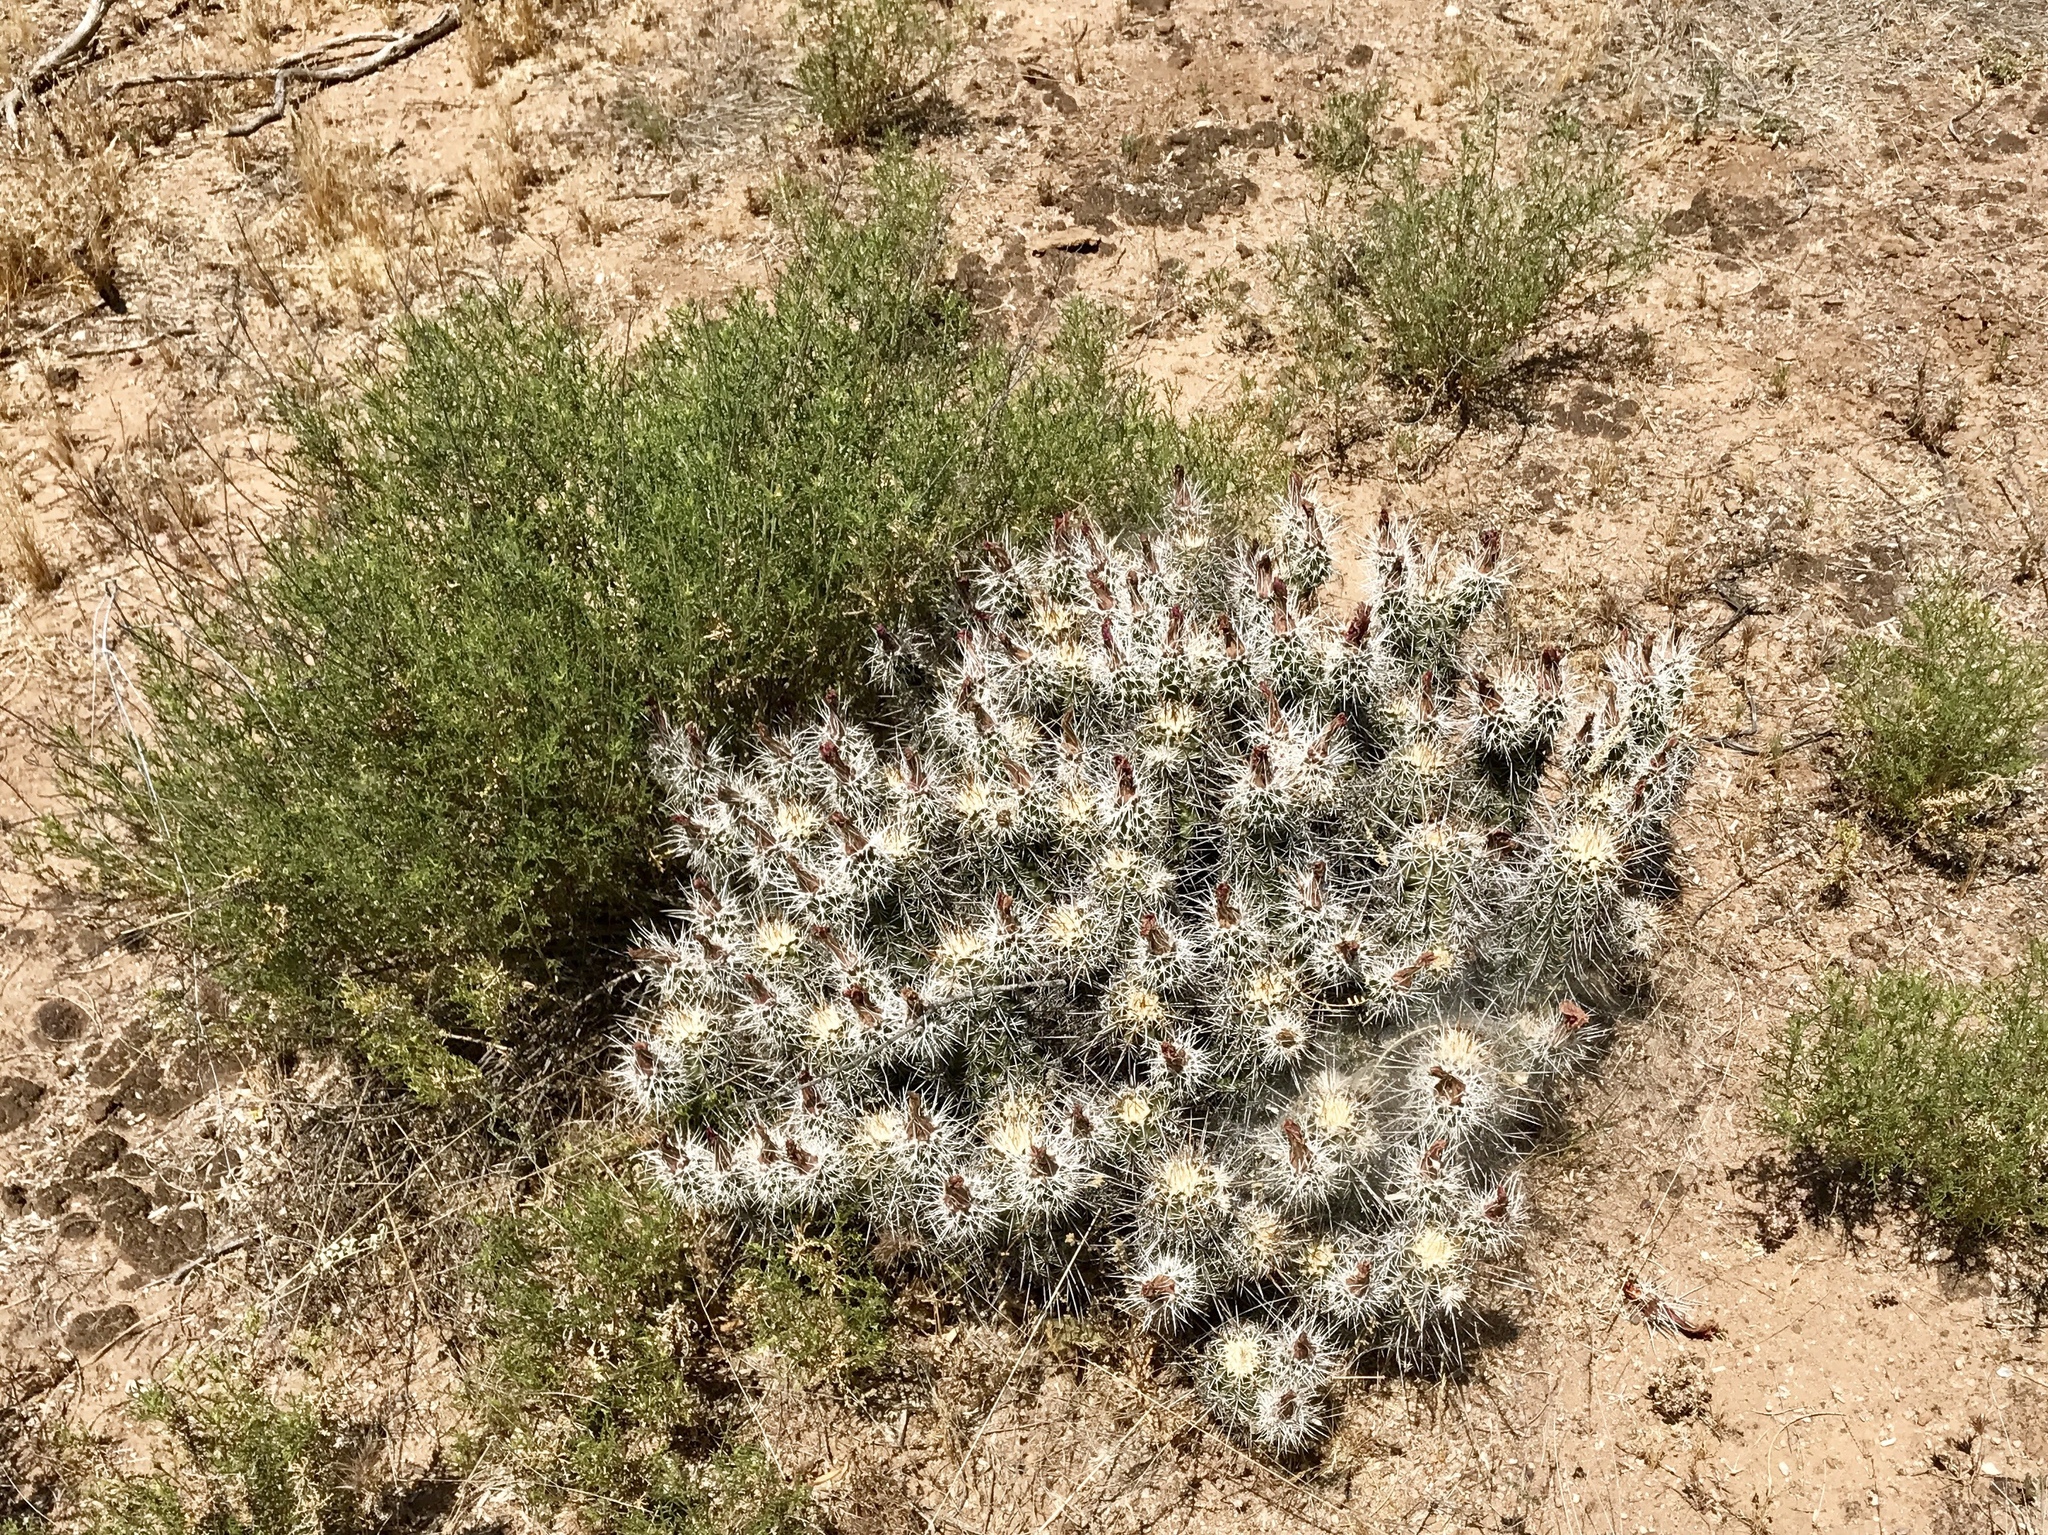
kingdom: Plantae
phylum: Tracheophyta
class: Magnoliopsida
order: Caryophyllales
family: Cactaceae
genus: Echinocereus
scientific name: Echinocereus fasciculatus
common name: Bundle hedgehog
